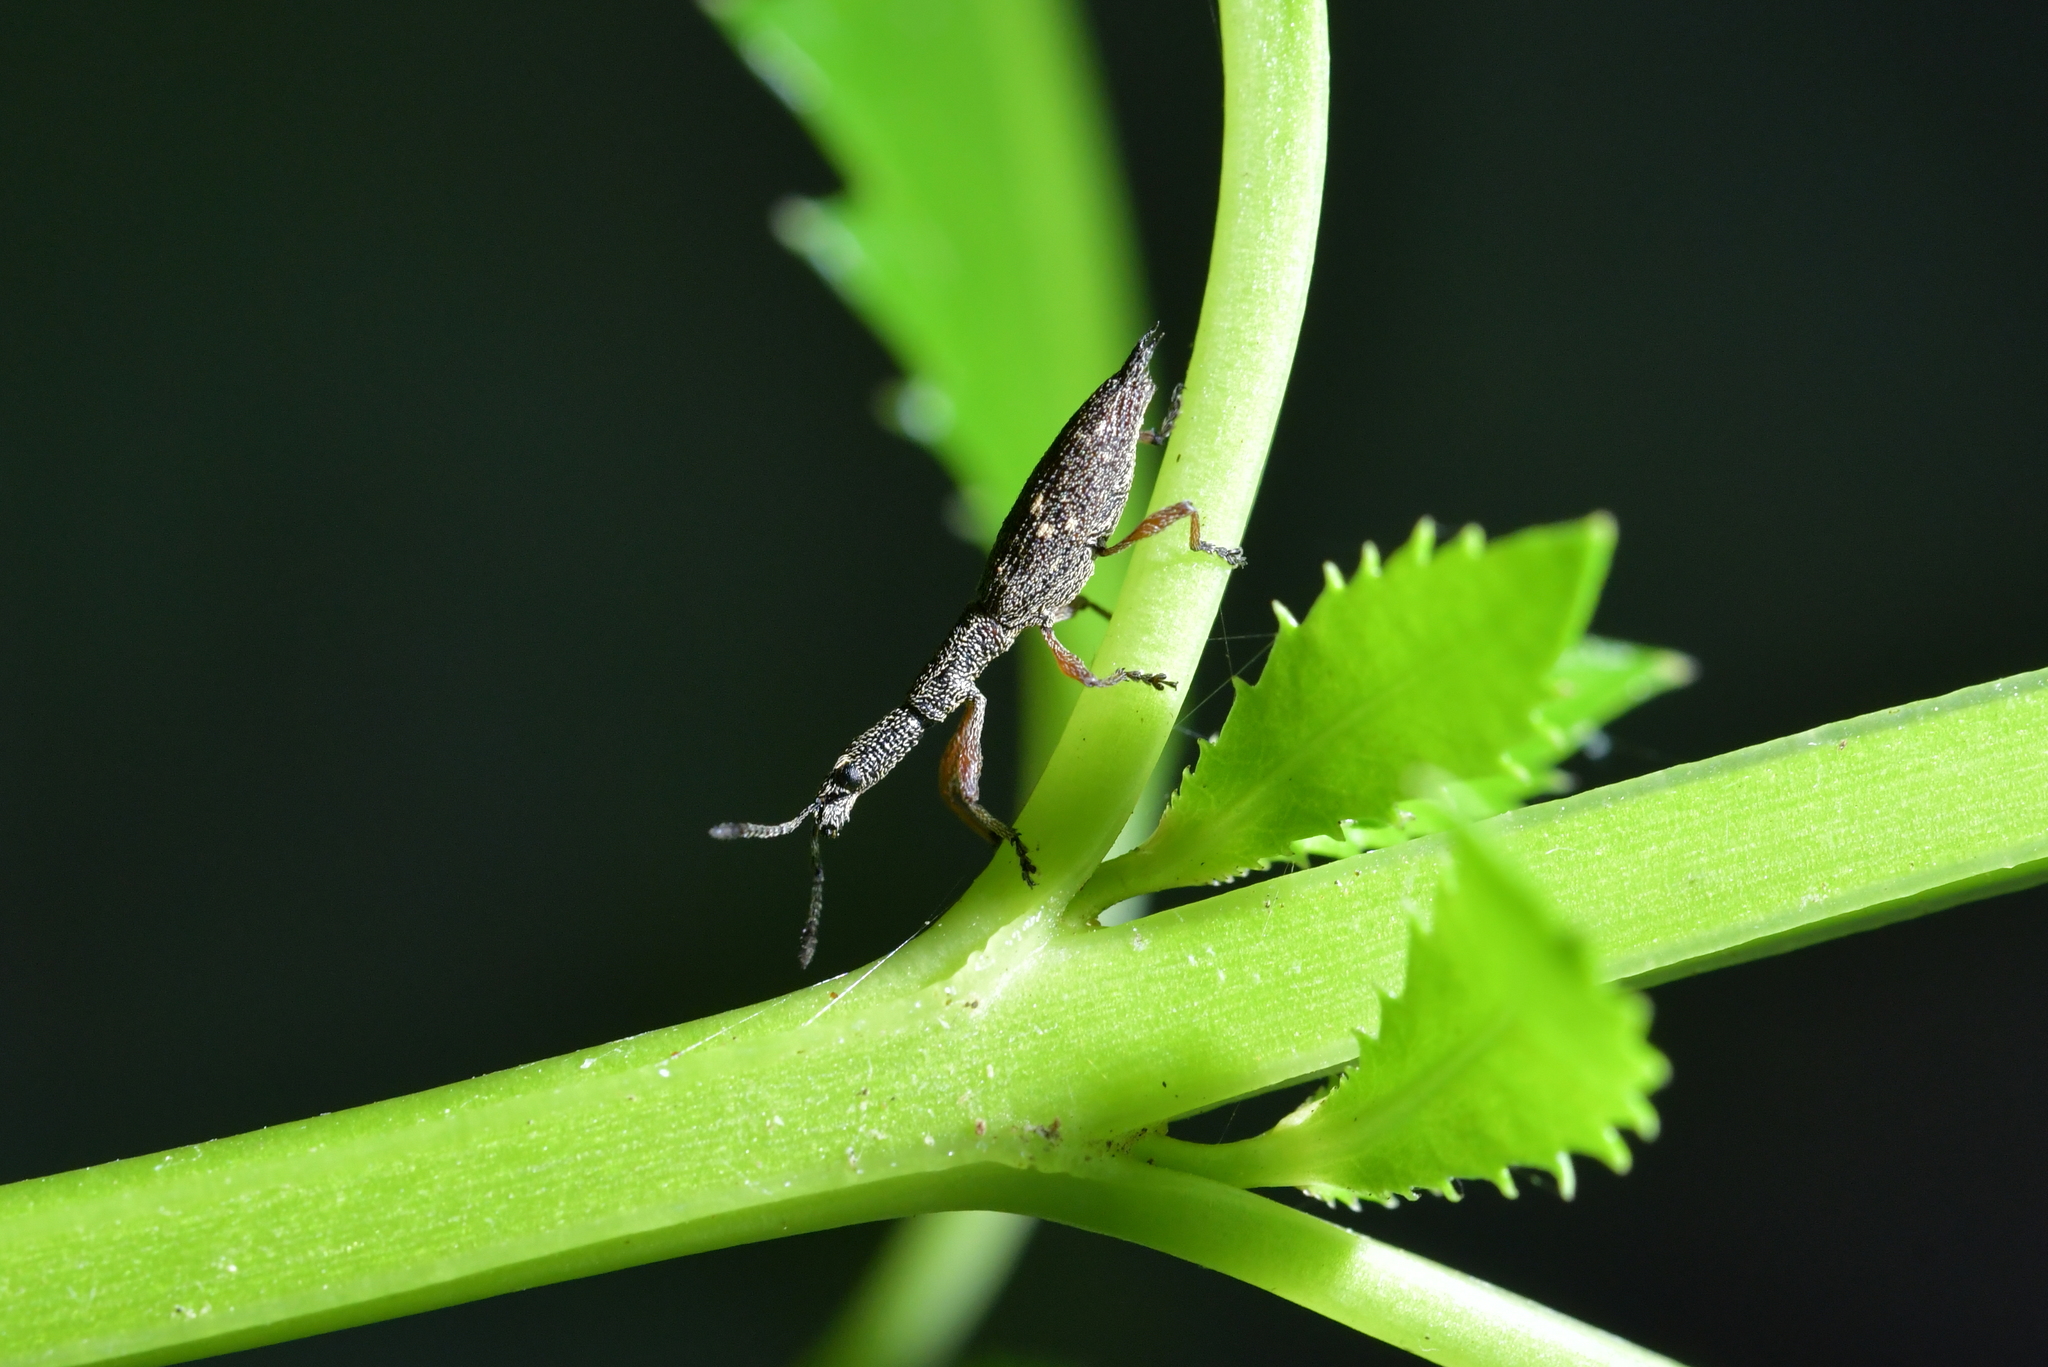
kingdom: Animalia
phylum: Arthropoda
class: Insecta
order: Coleoptera
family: Curculionidae
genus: Rhadinosomus
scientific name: Rhadinosomus acuminatus
